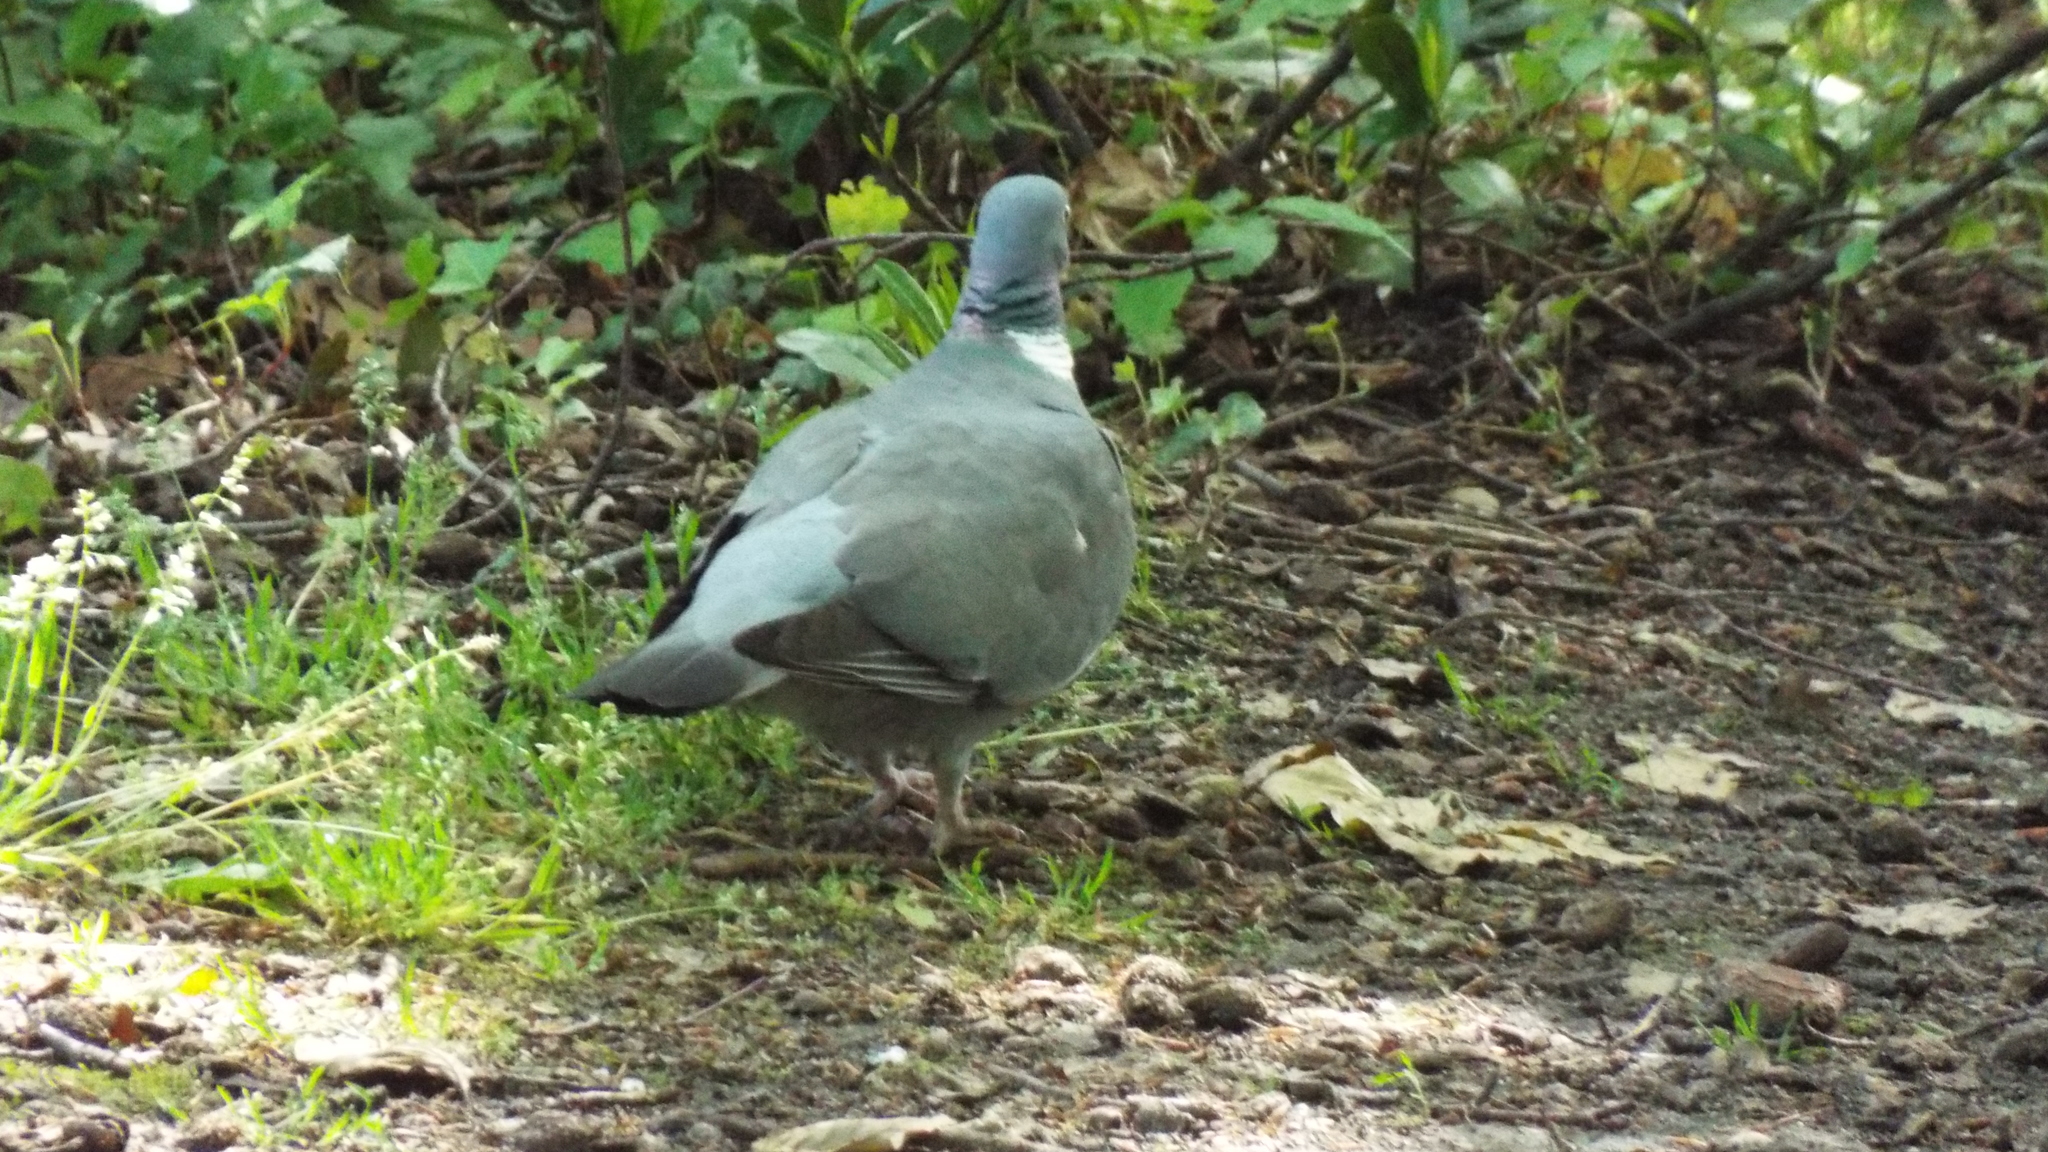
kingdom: Animalia
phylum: Chordata
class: Aves
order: Columbiformes
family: Columbidae
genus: Columba
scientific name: Columba palumbus
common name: Common wood pigeon
